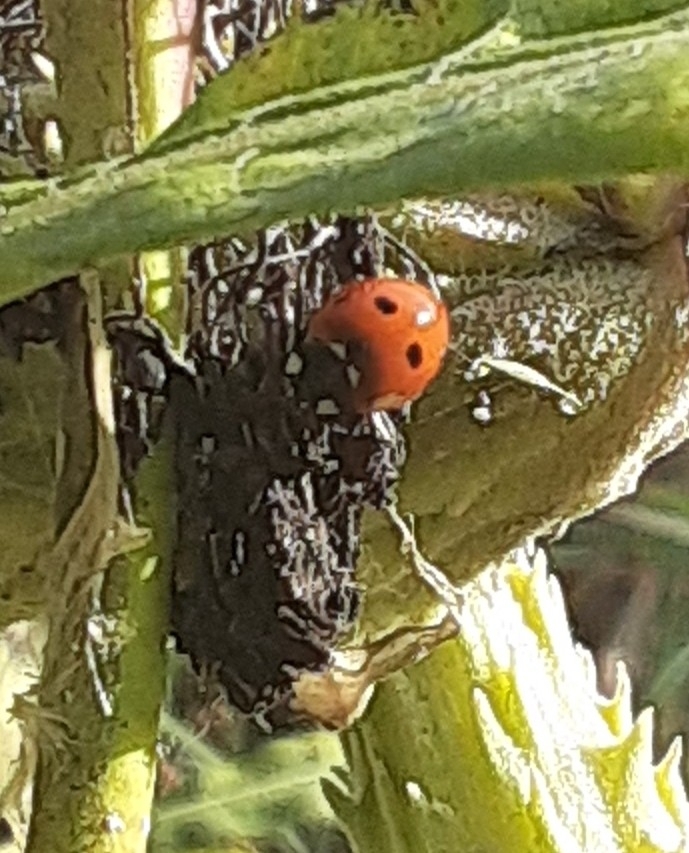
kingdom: Animalia
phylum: Arthropoda
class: Insecta
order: Coleoptera
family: Coccinellidae
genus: Coccinella
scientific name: Coccinella septempunctata
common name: Sevenspotted lady beetle
